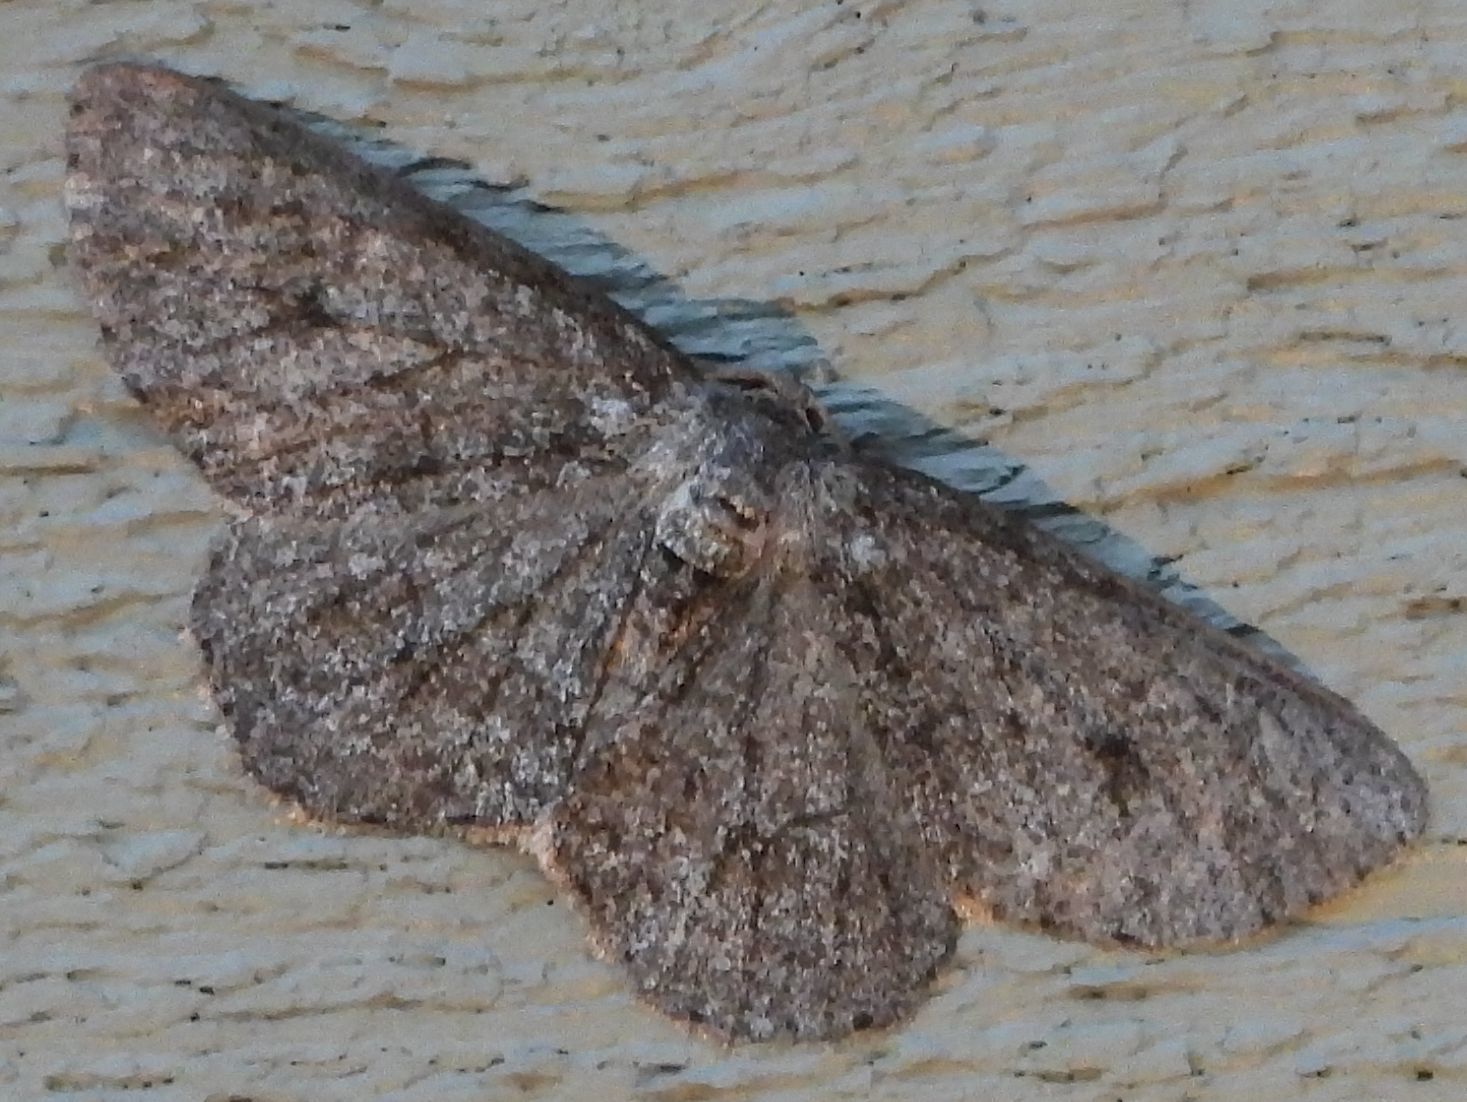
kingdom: Animalia
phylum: Arthropoda
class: Insecta
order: Lepidoptera
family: Geometridae
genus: Ectropis
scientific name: Ectropis crepuscularia
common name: Engrailed
